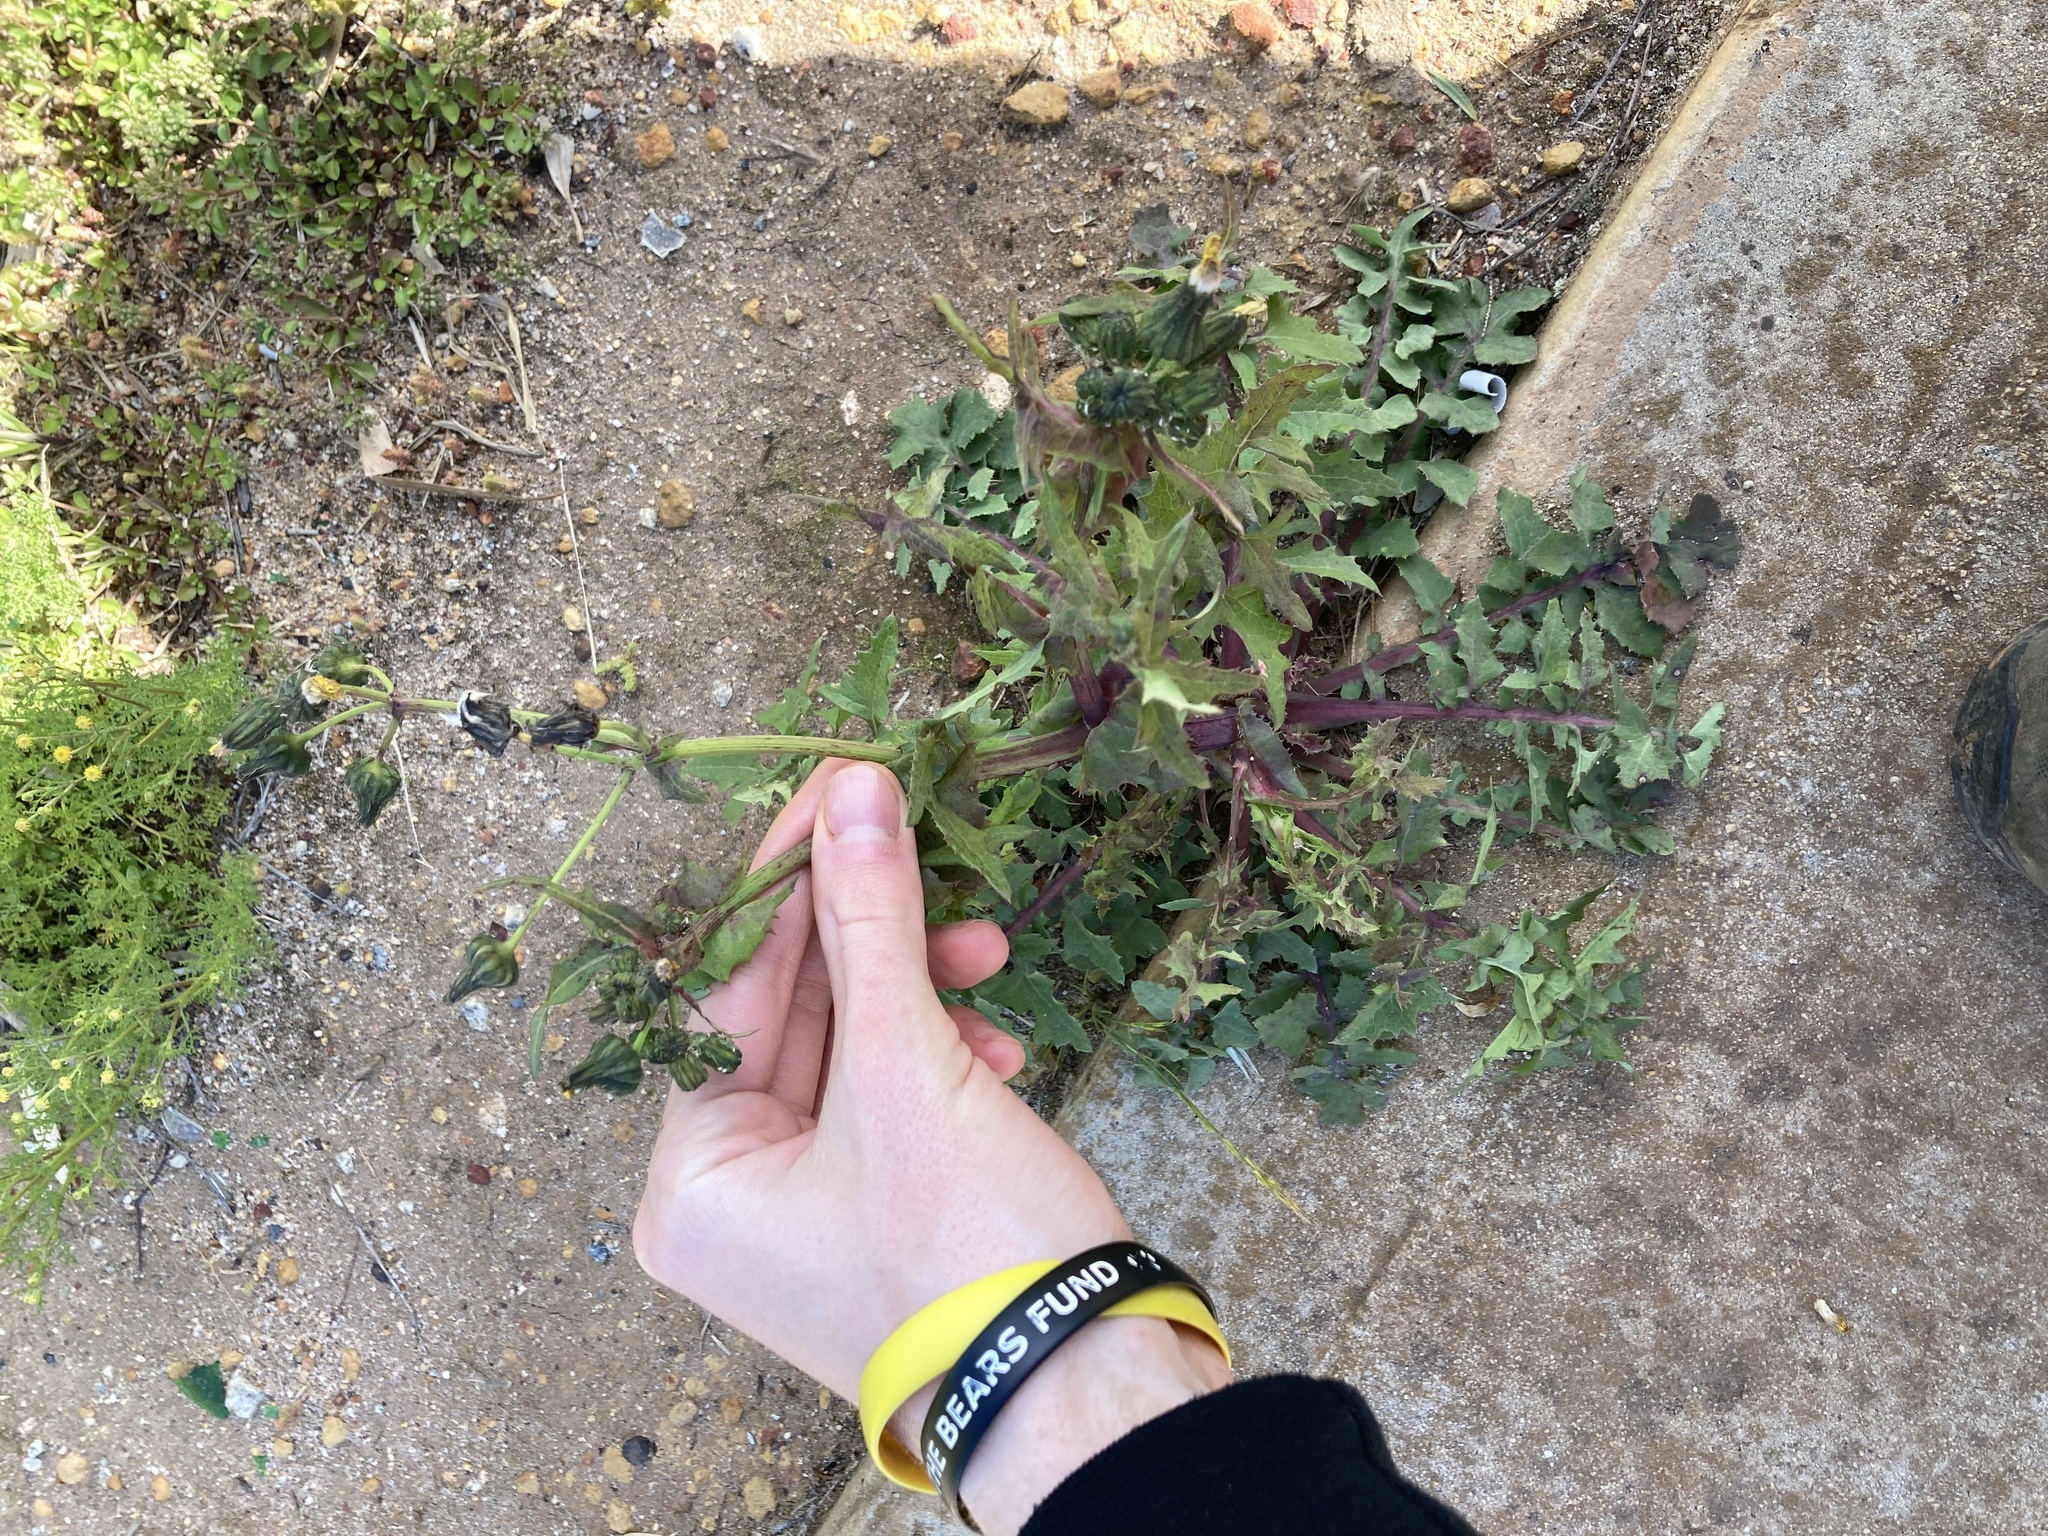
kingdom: Plantae
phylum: Tracheophyta
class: Magnoliopsida
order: Asterales
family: Asteraceae
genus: Sonchus
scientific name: Sonchus oleraceus
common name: Common sowthistle
